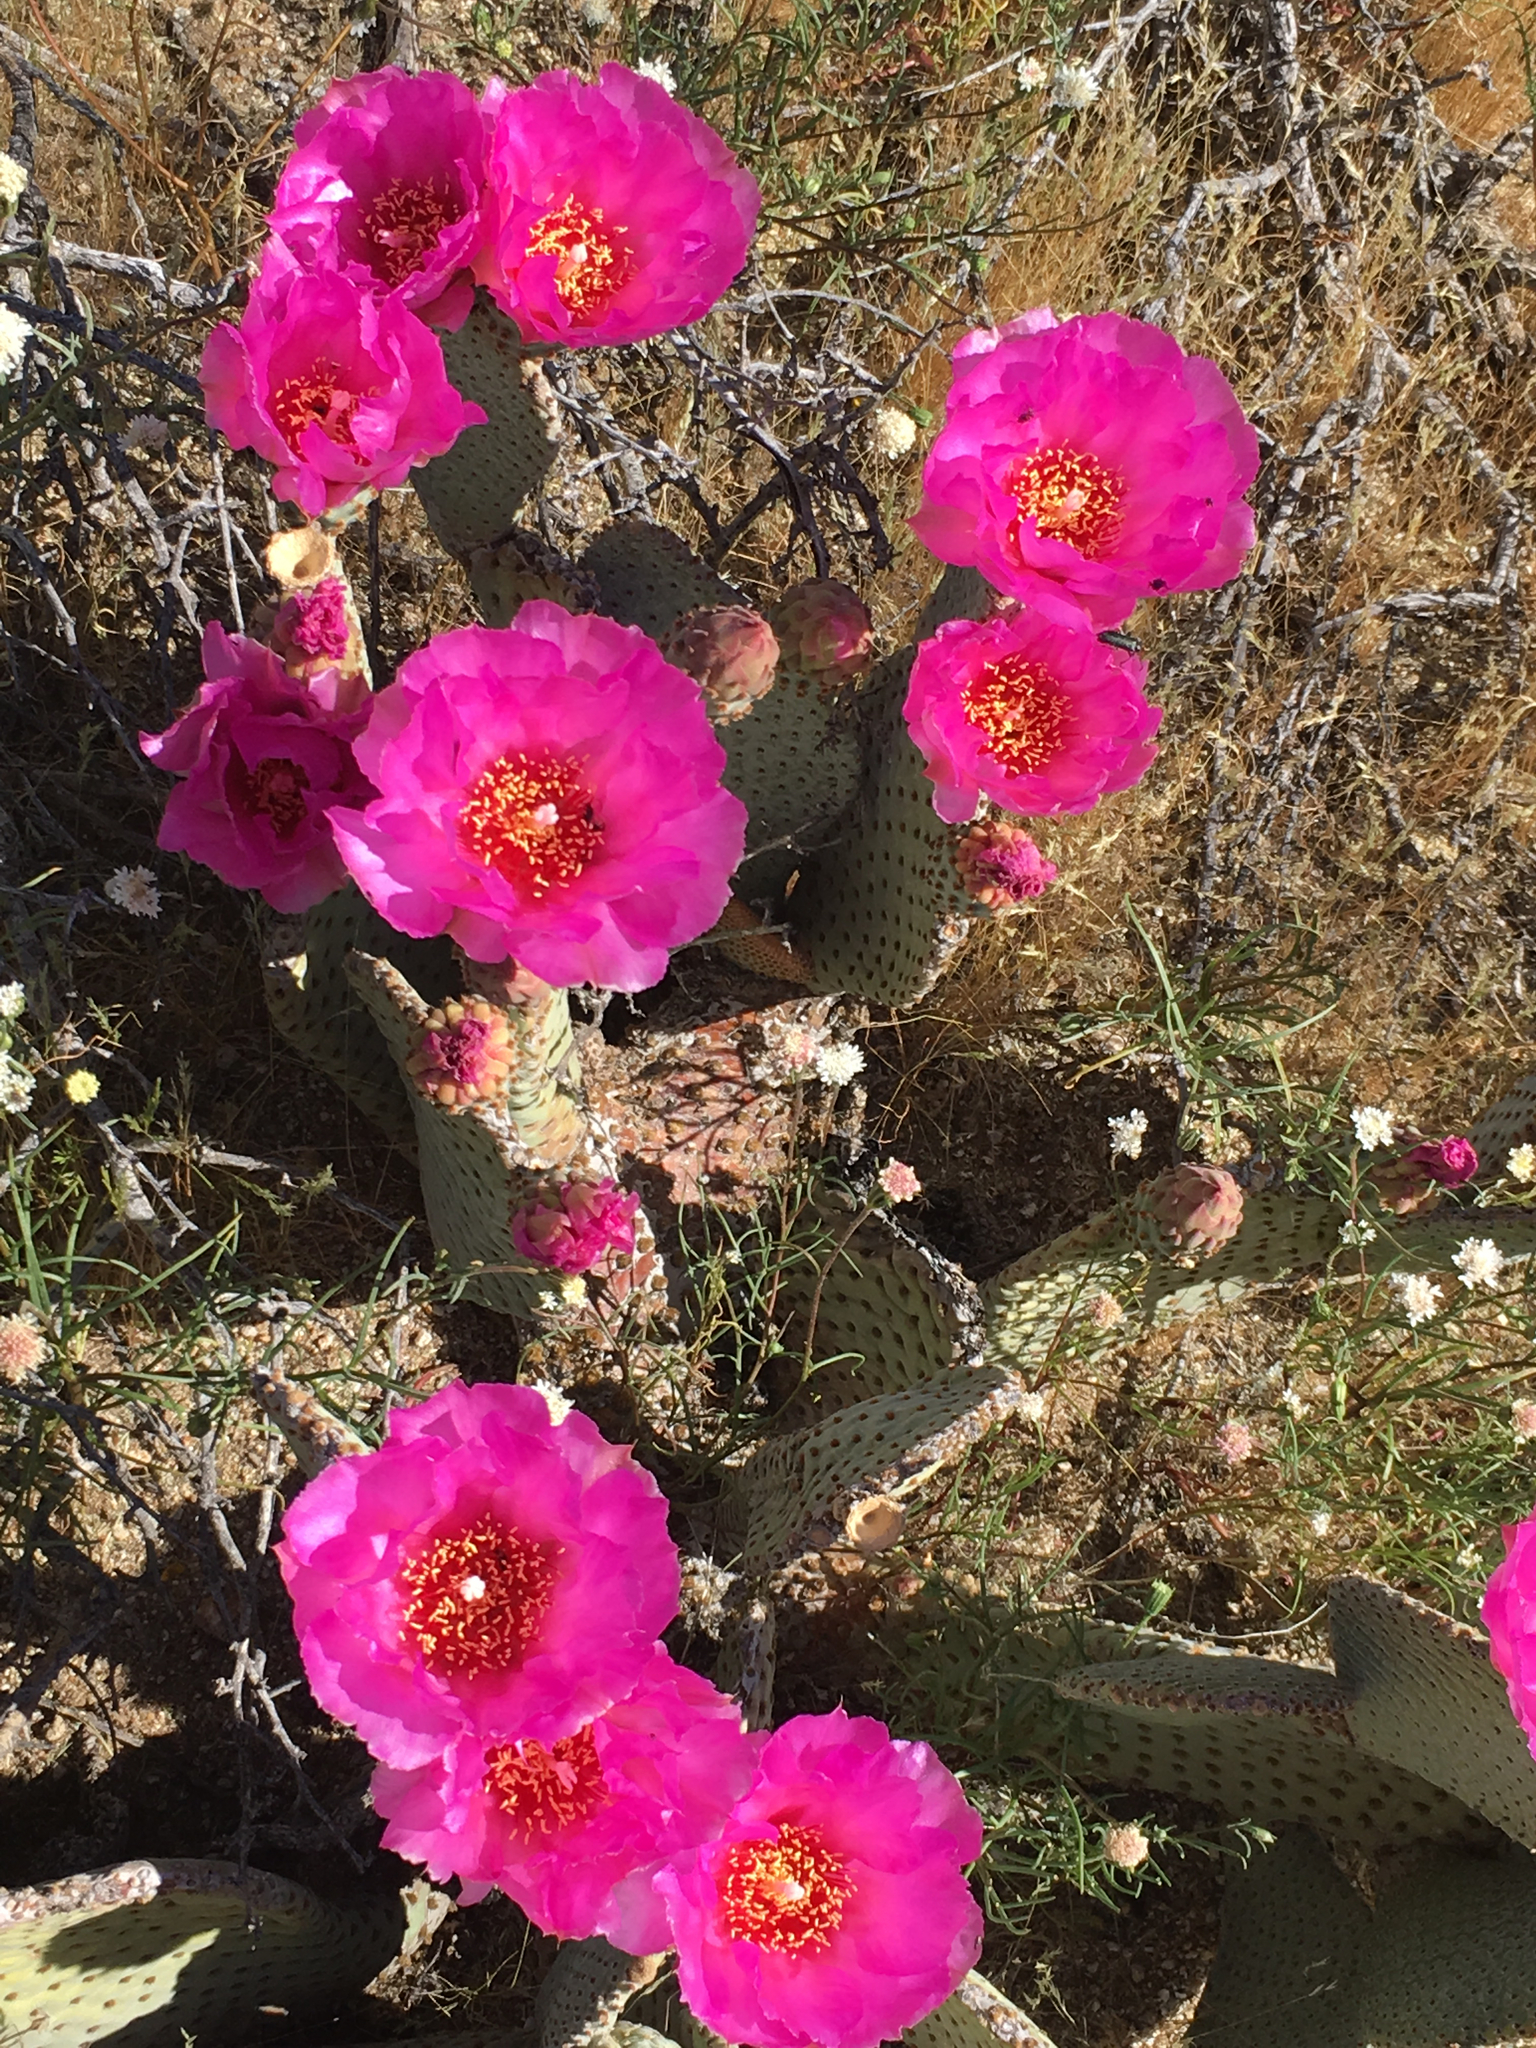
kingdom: Plantae
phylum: Tracheophyta
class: Magnoliopsida
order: Caryophyllales
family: Cactaceae
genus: Opuntia
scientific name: Opuntia basilaris
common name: Beavertail prickly-pear
